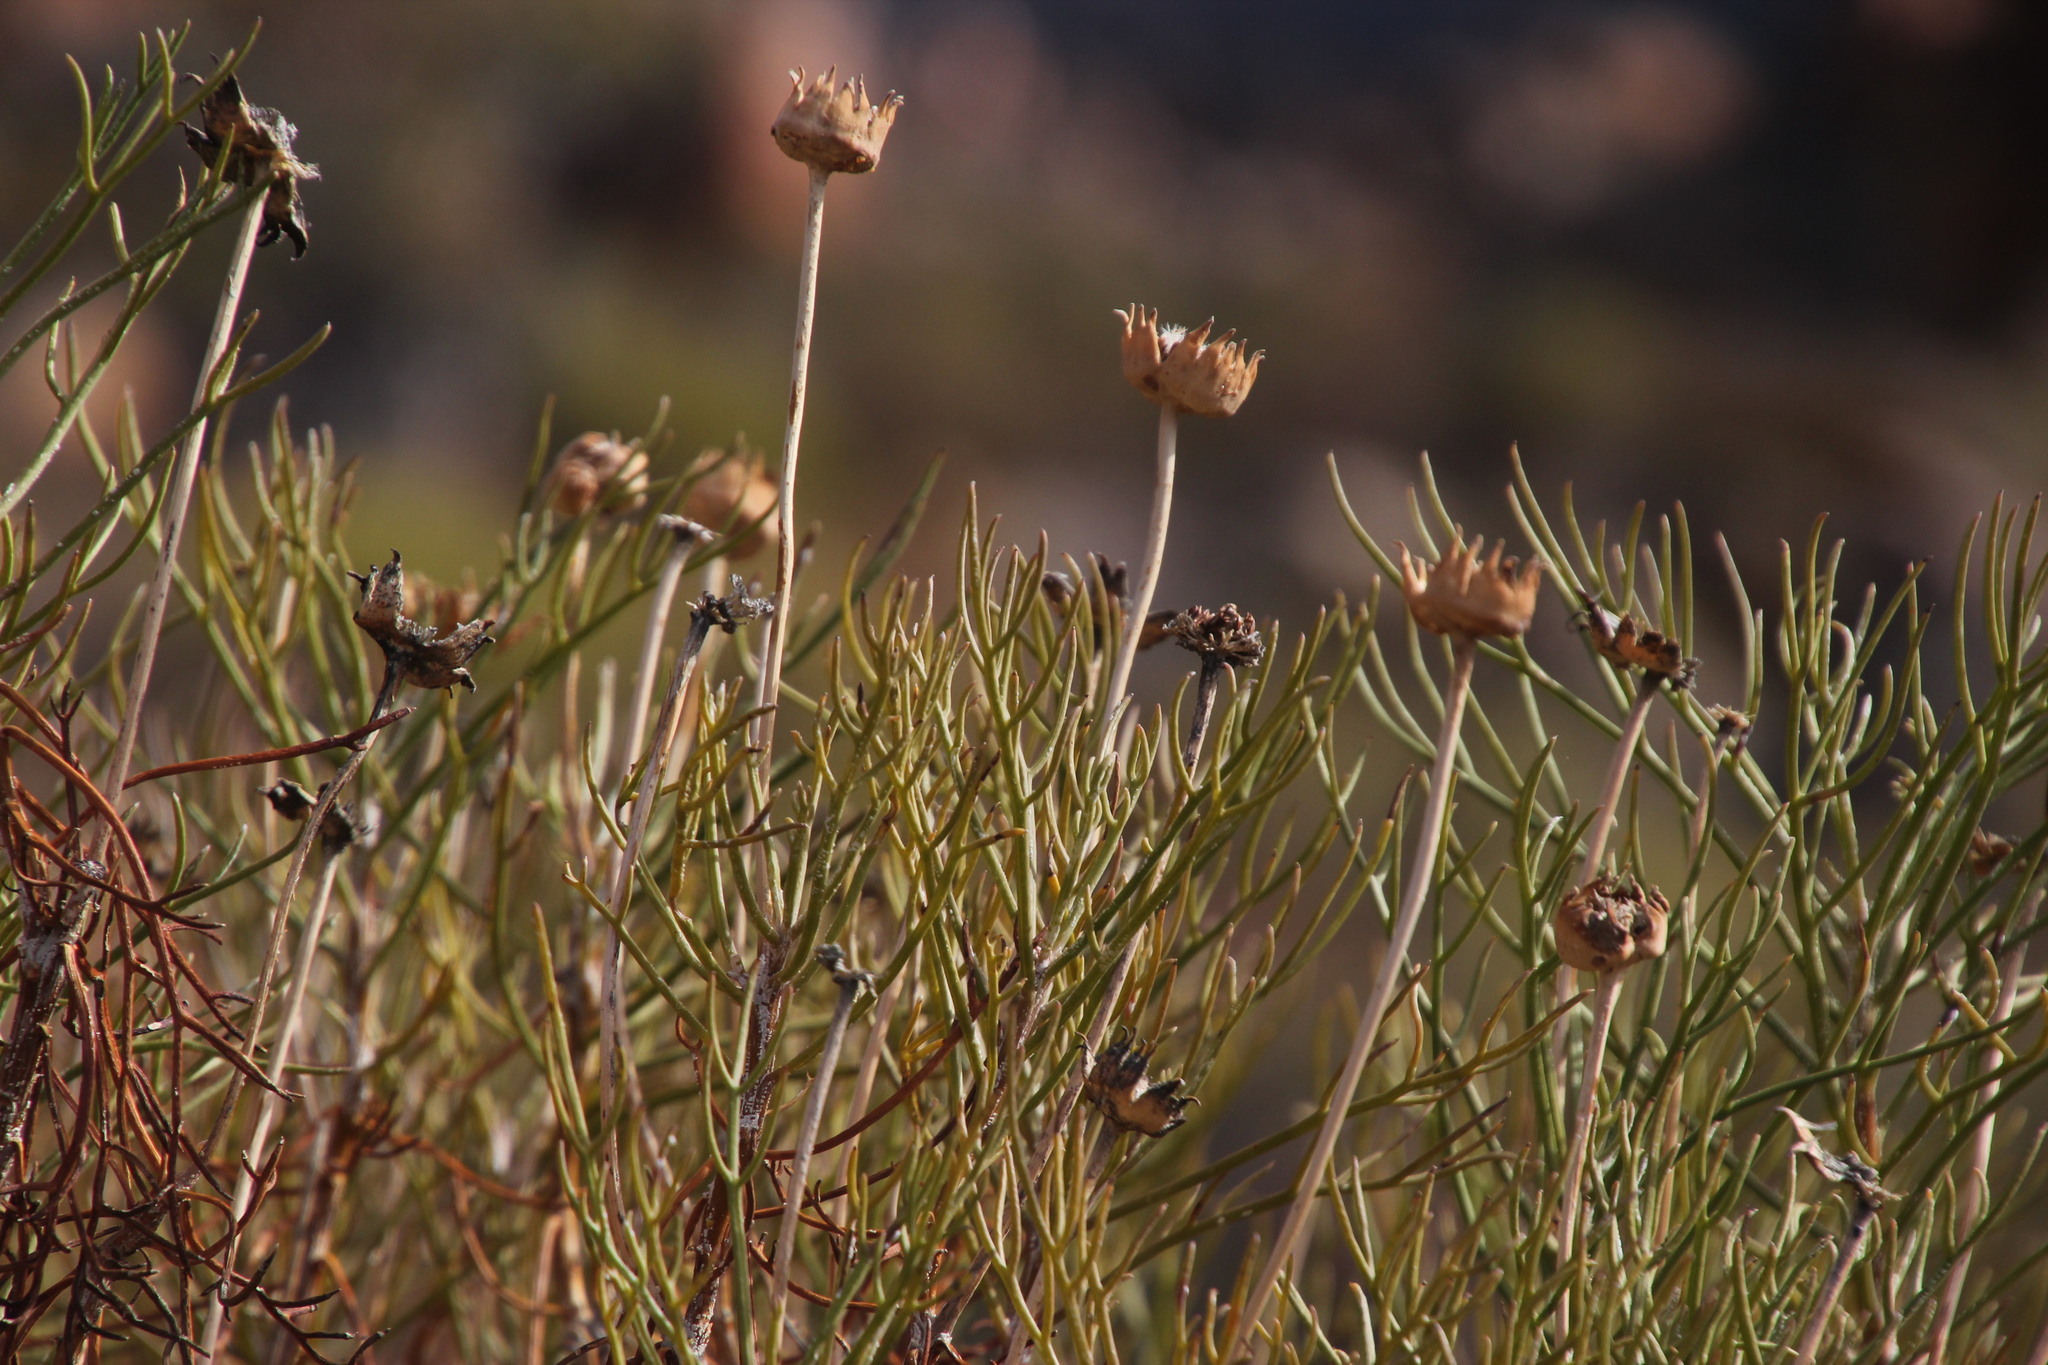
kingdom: Plantae
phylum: Tracheophyta
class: Magnoliopsida
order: Asterales
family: Asteraceae
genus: Euryops
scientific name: Euryops wageneri
